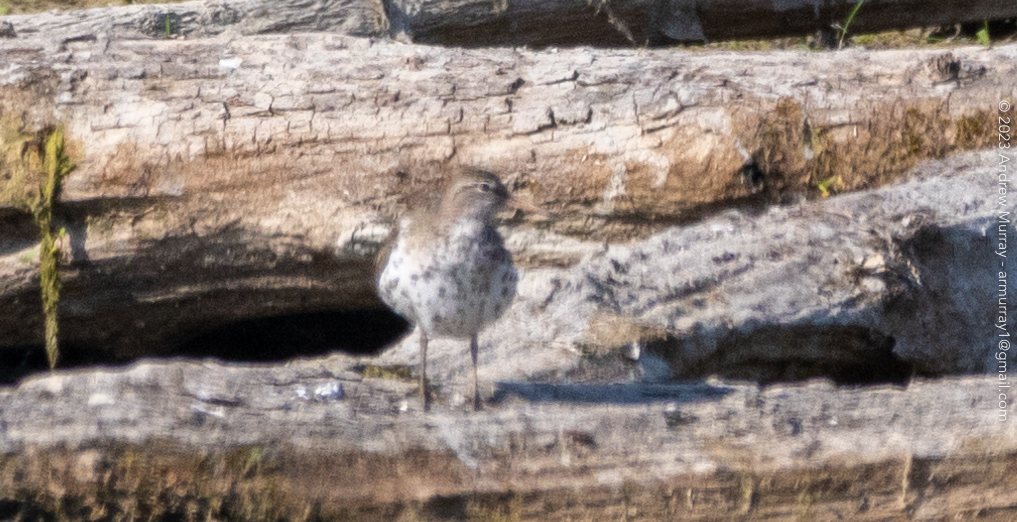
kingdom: Animalia
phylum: Chordata
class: Aves
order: Charadriiformes
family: Scolopacidae
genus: Actitis
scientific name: Actitis macularius
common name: Spotted sandpiper
